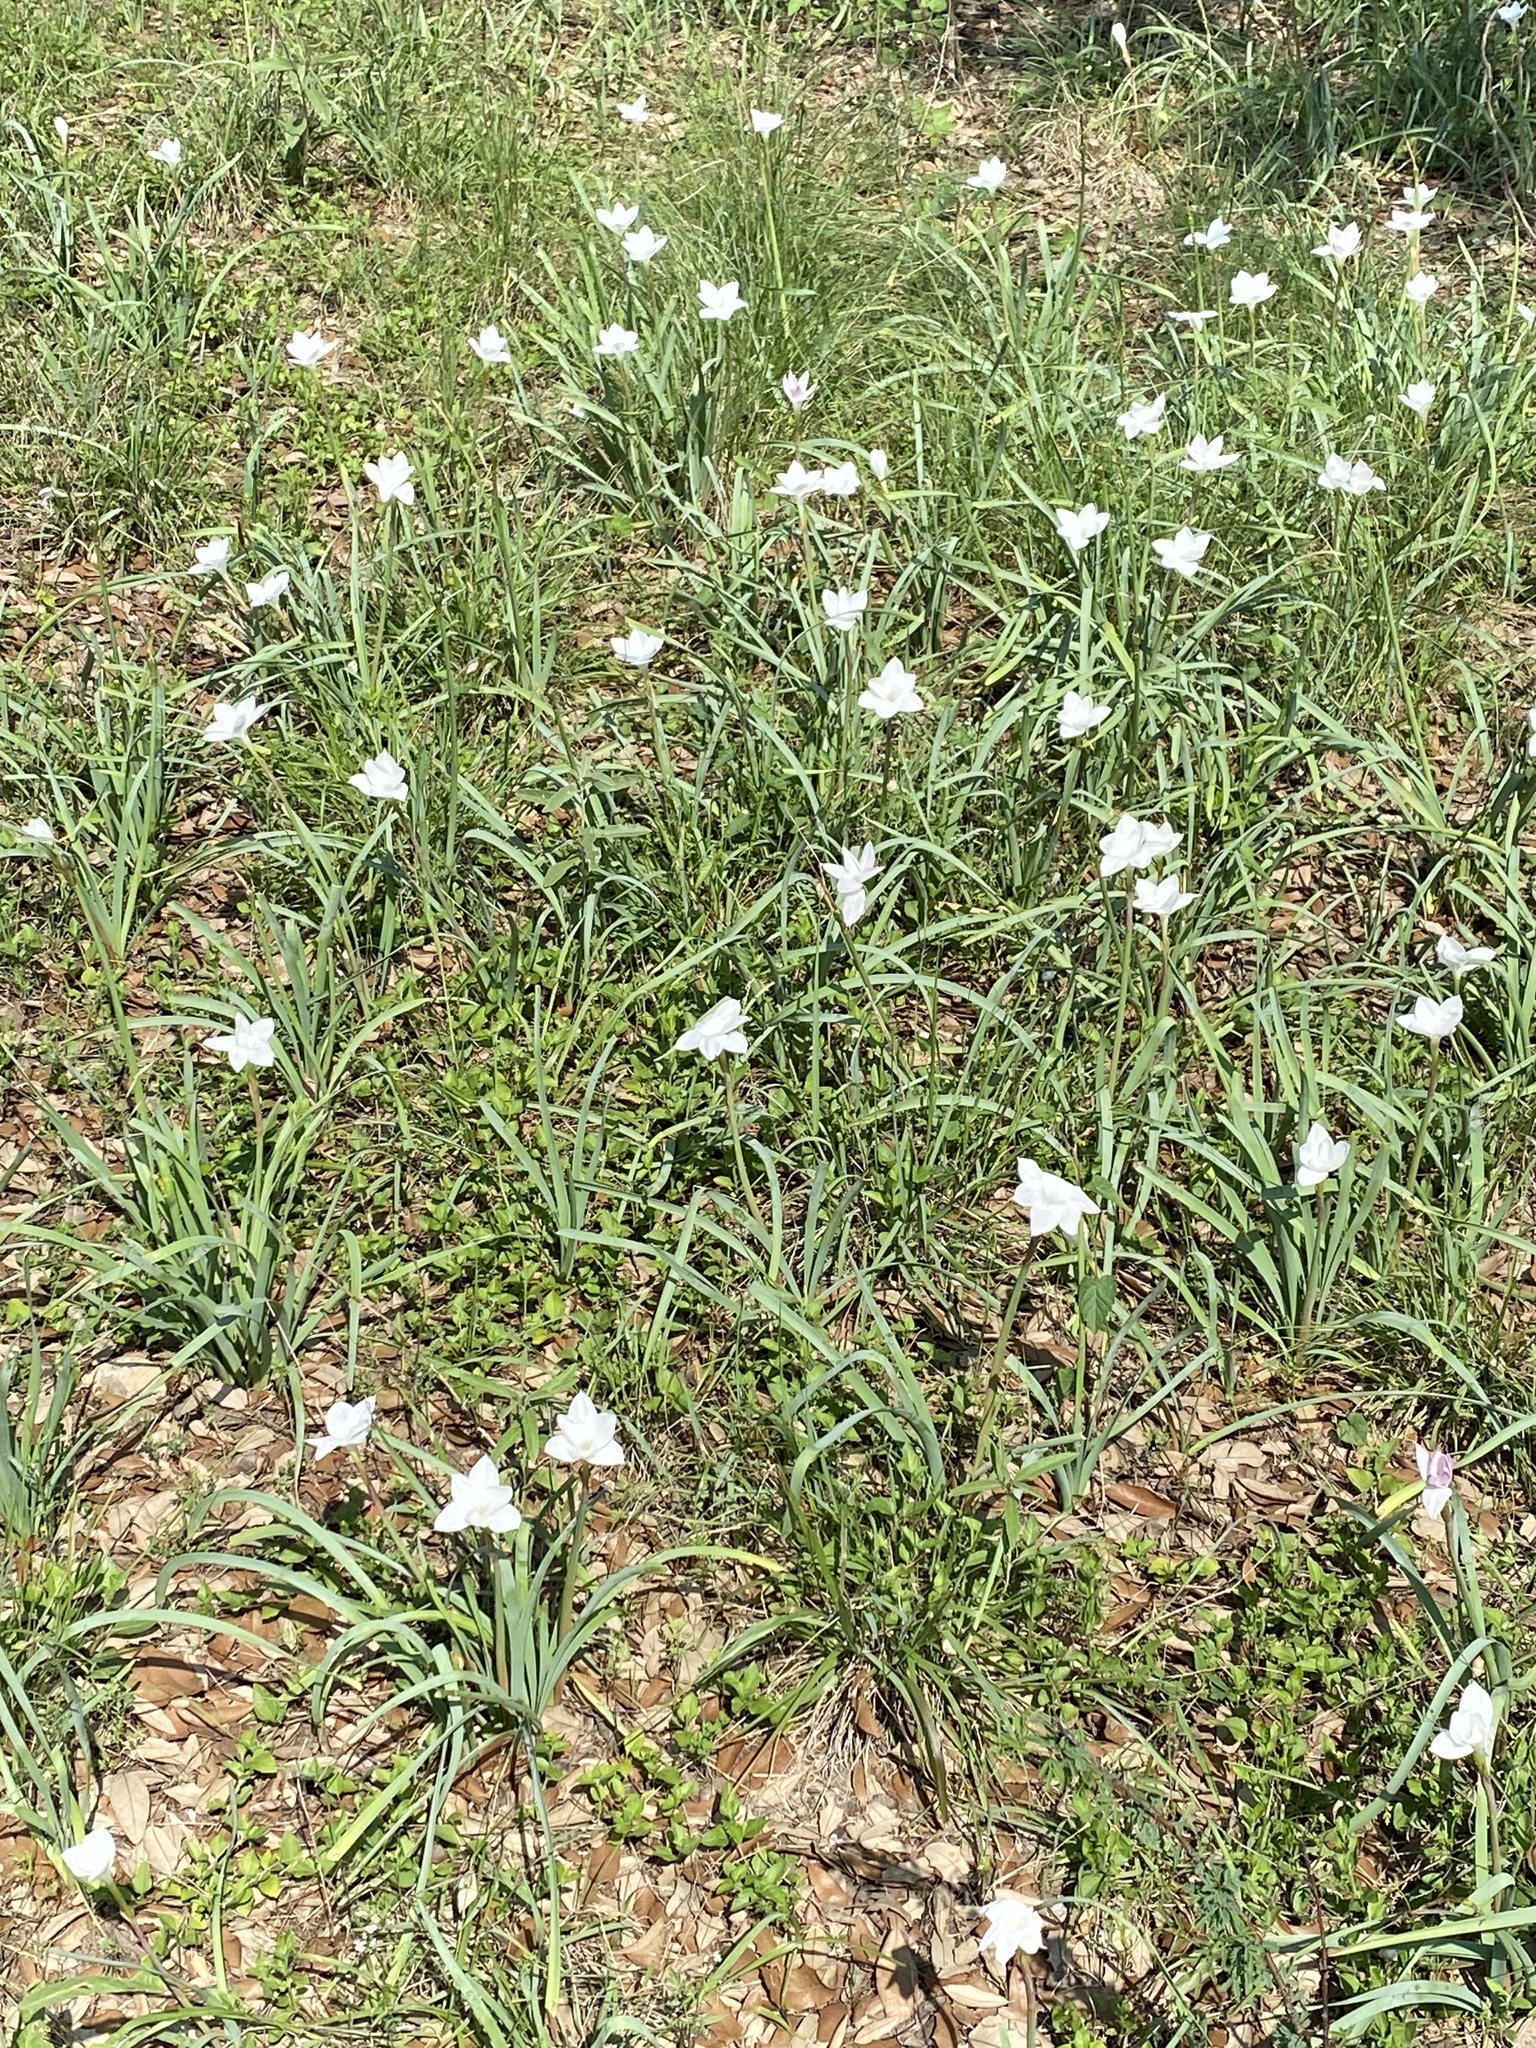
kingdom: Plantae
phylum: Tracheophyta
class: Liliopsida
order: Asparagales
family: Amaryllidaceae
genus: Zephyranthes
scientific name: Zephyranthes drummondii
